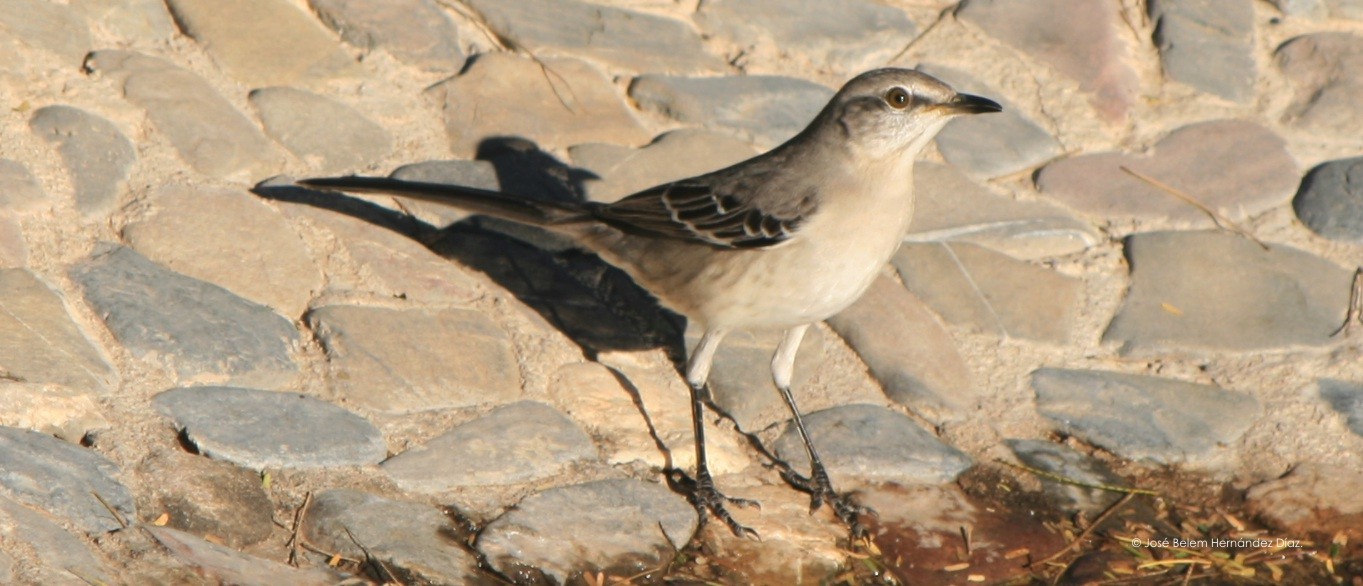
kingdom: Animalia
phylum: Chordata
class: Aves
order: Passeriformes
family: Mimidae
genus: Mimus
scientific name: Mimus polyglottos
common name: Northern mockingbird
